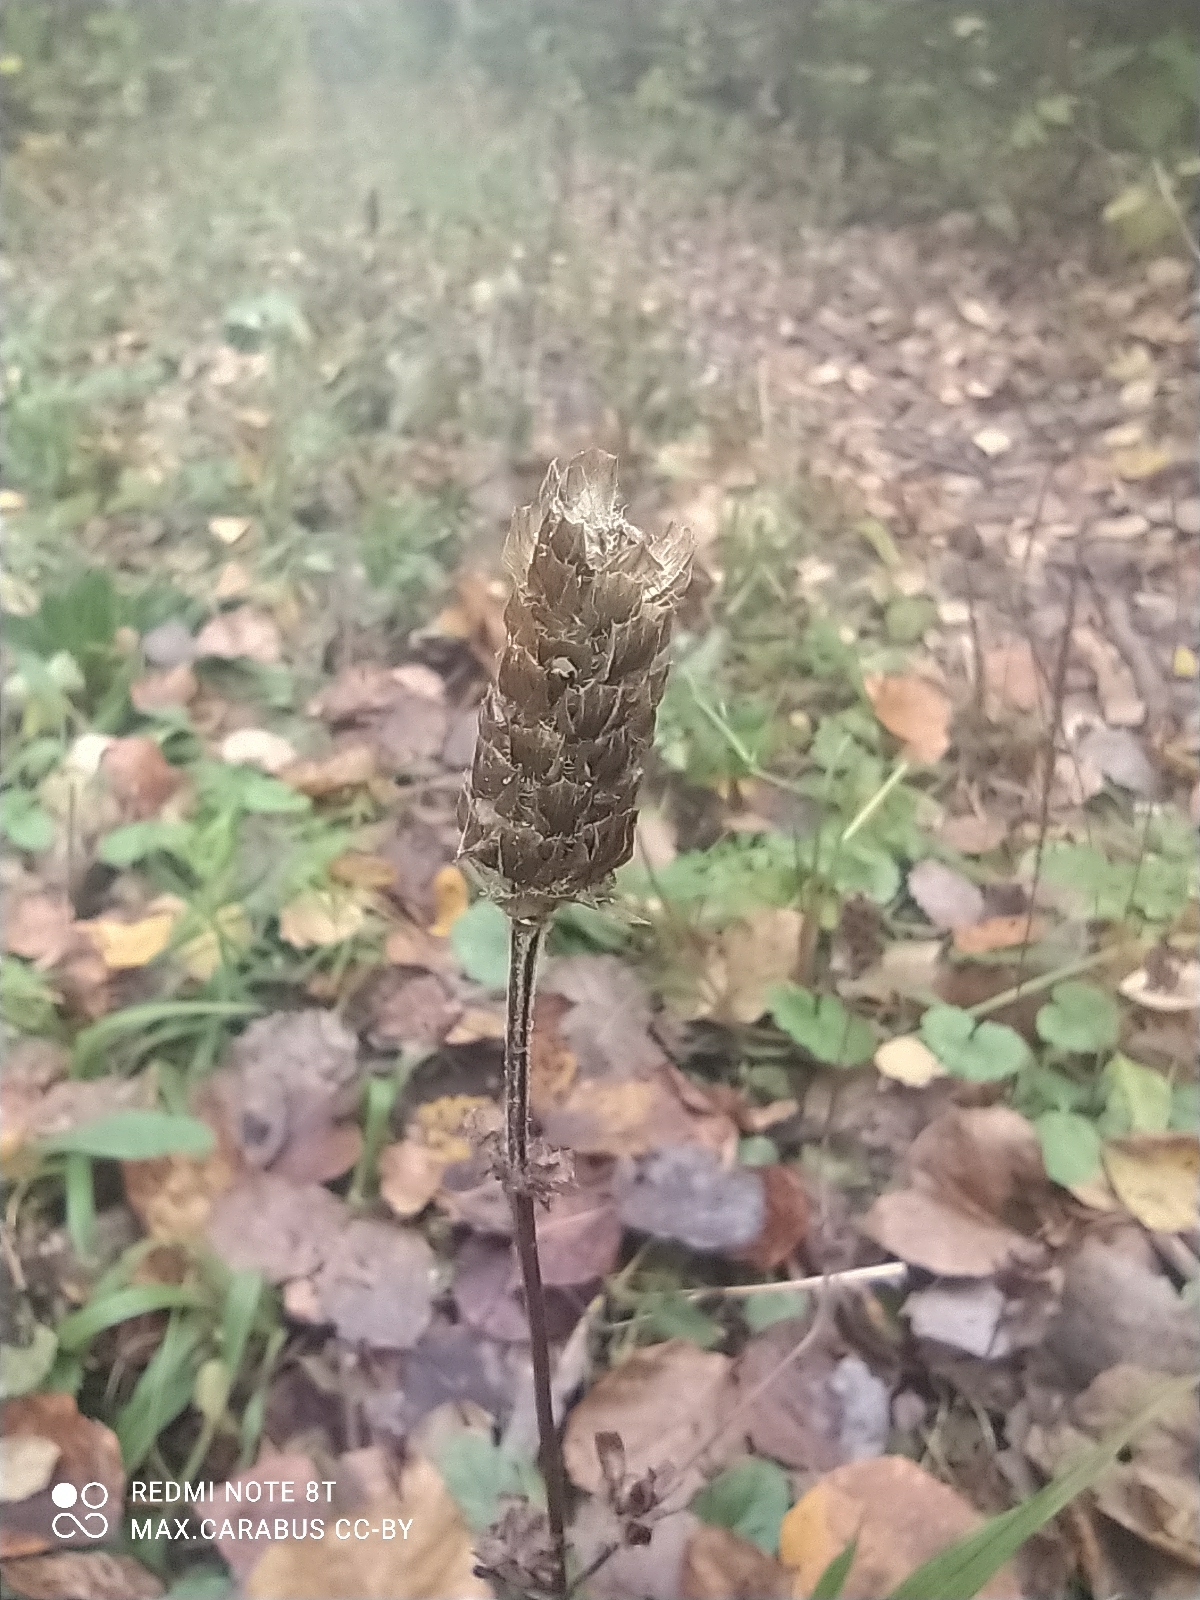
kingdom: Plantae
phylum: Tracheophyta
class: Magnoliopsida
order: Lamiales
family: Lamiaceae
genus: Prunella
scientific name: Prunella vulgaris
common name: Heal-all
